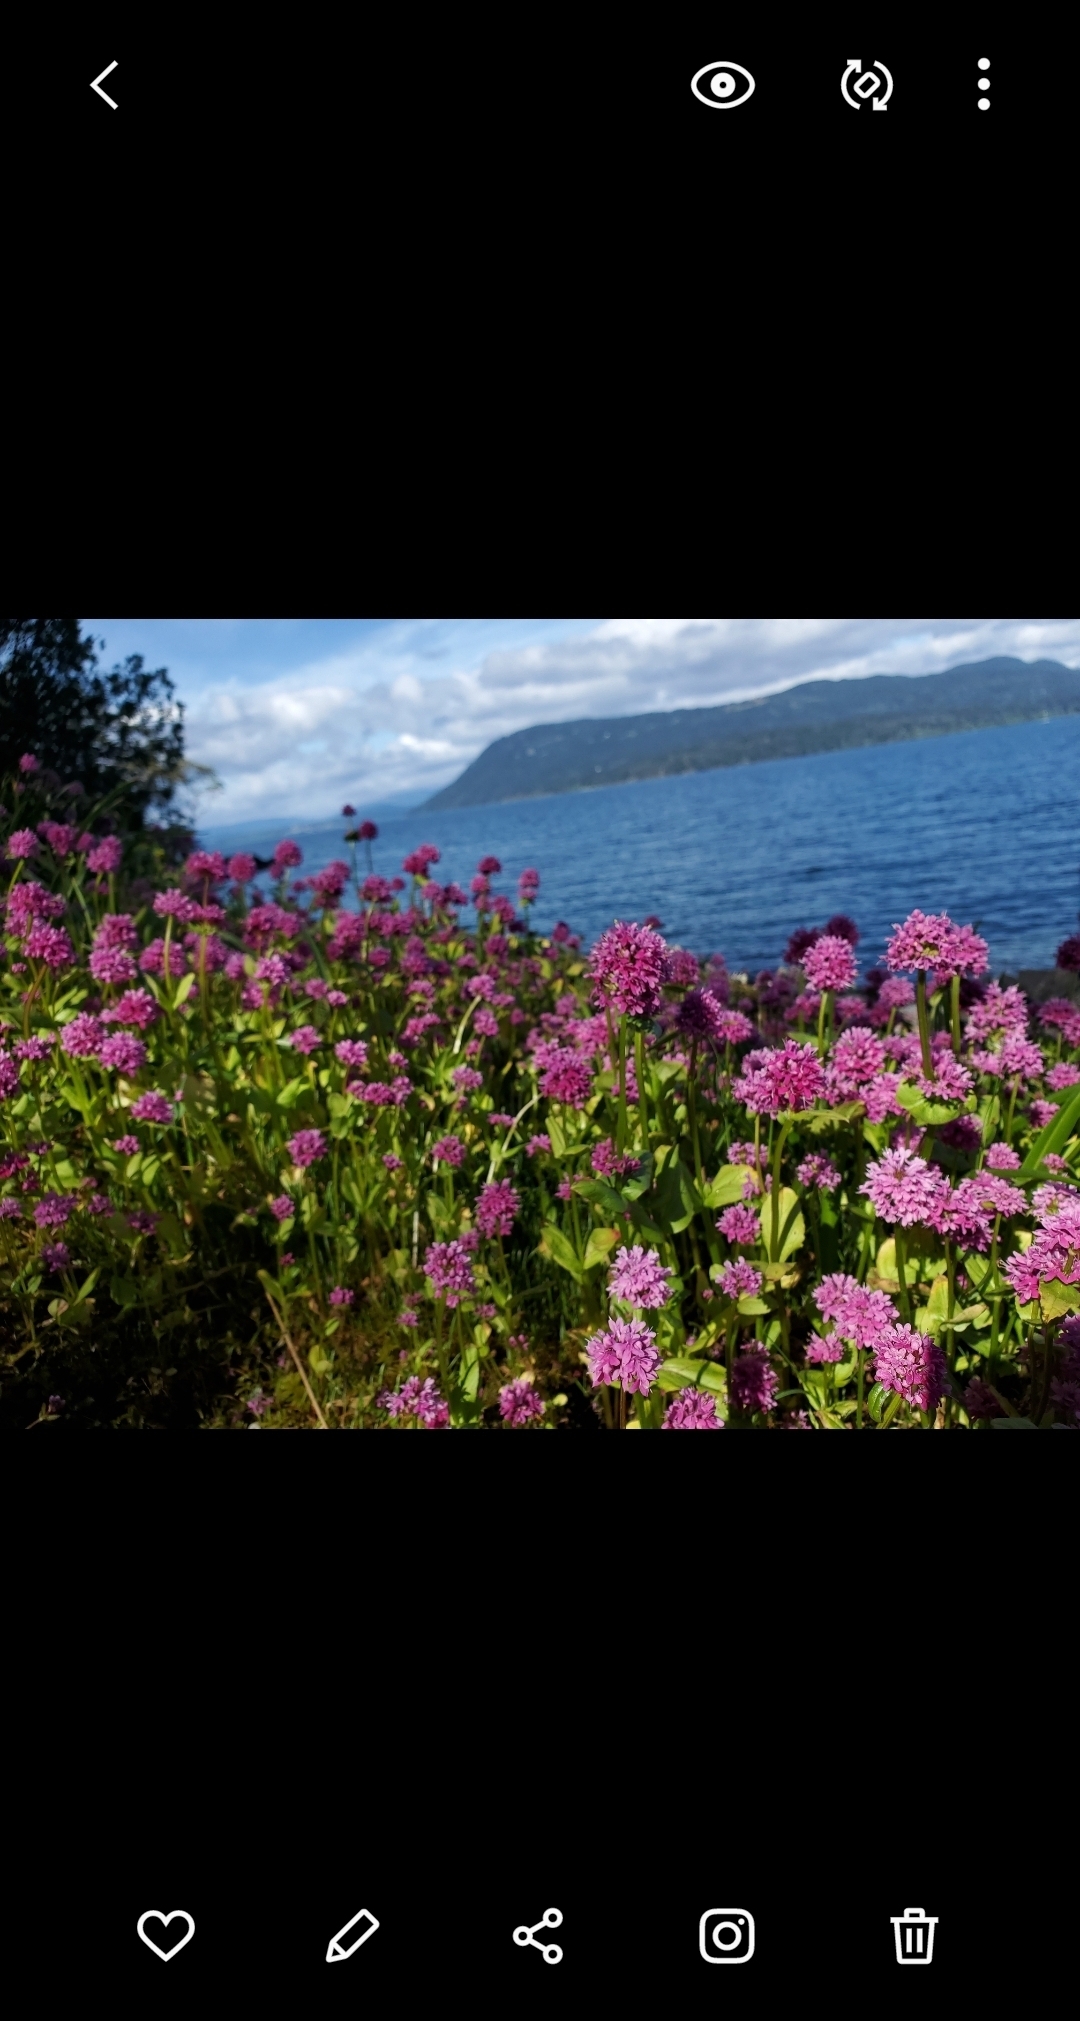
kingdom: Plantae
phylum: Tracheophyta
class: Magnoliopsida
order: Dipsacales
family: Caprifoliaceae
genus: Plectritis
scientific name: Plectritis congesta
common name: Pink plectritis
